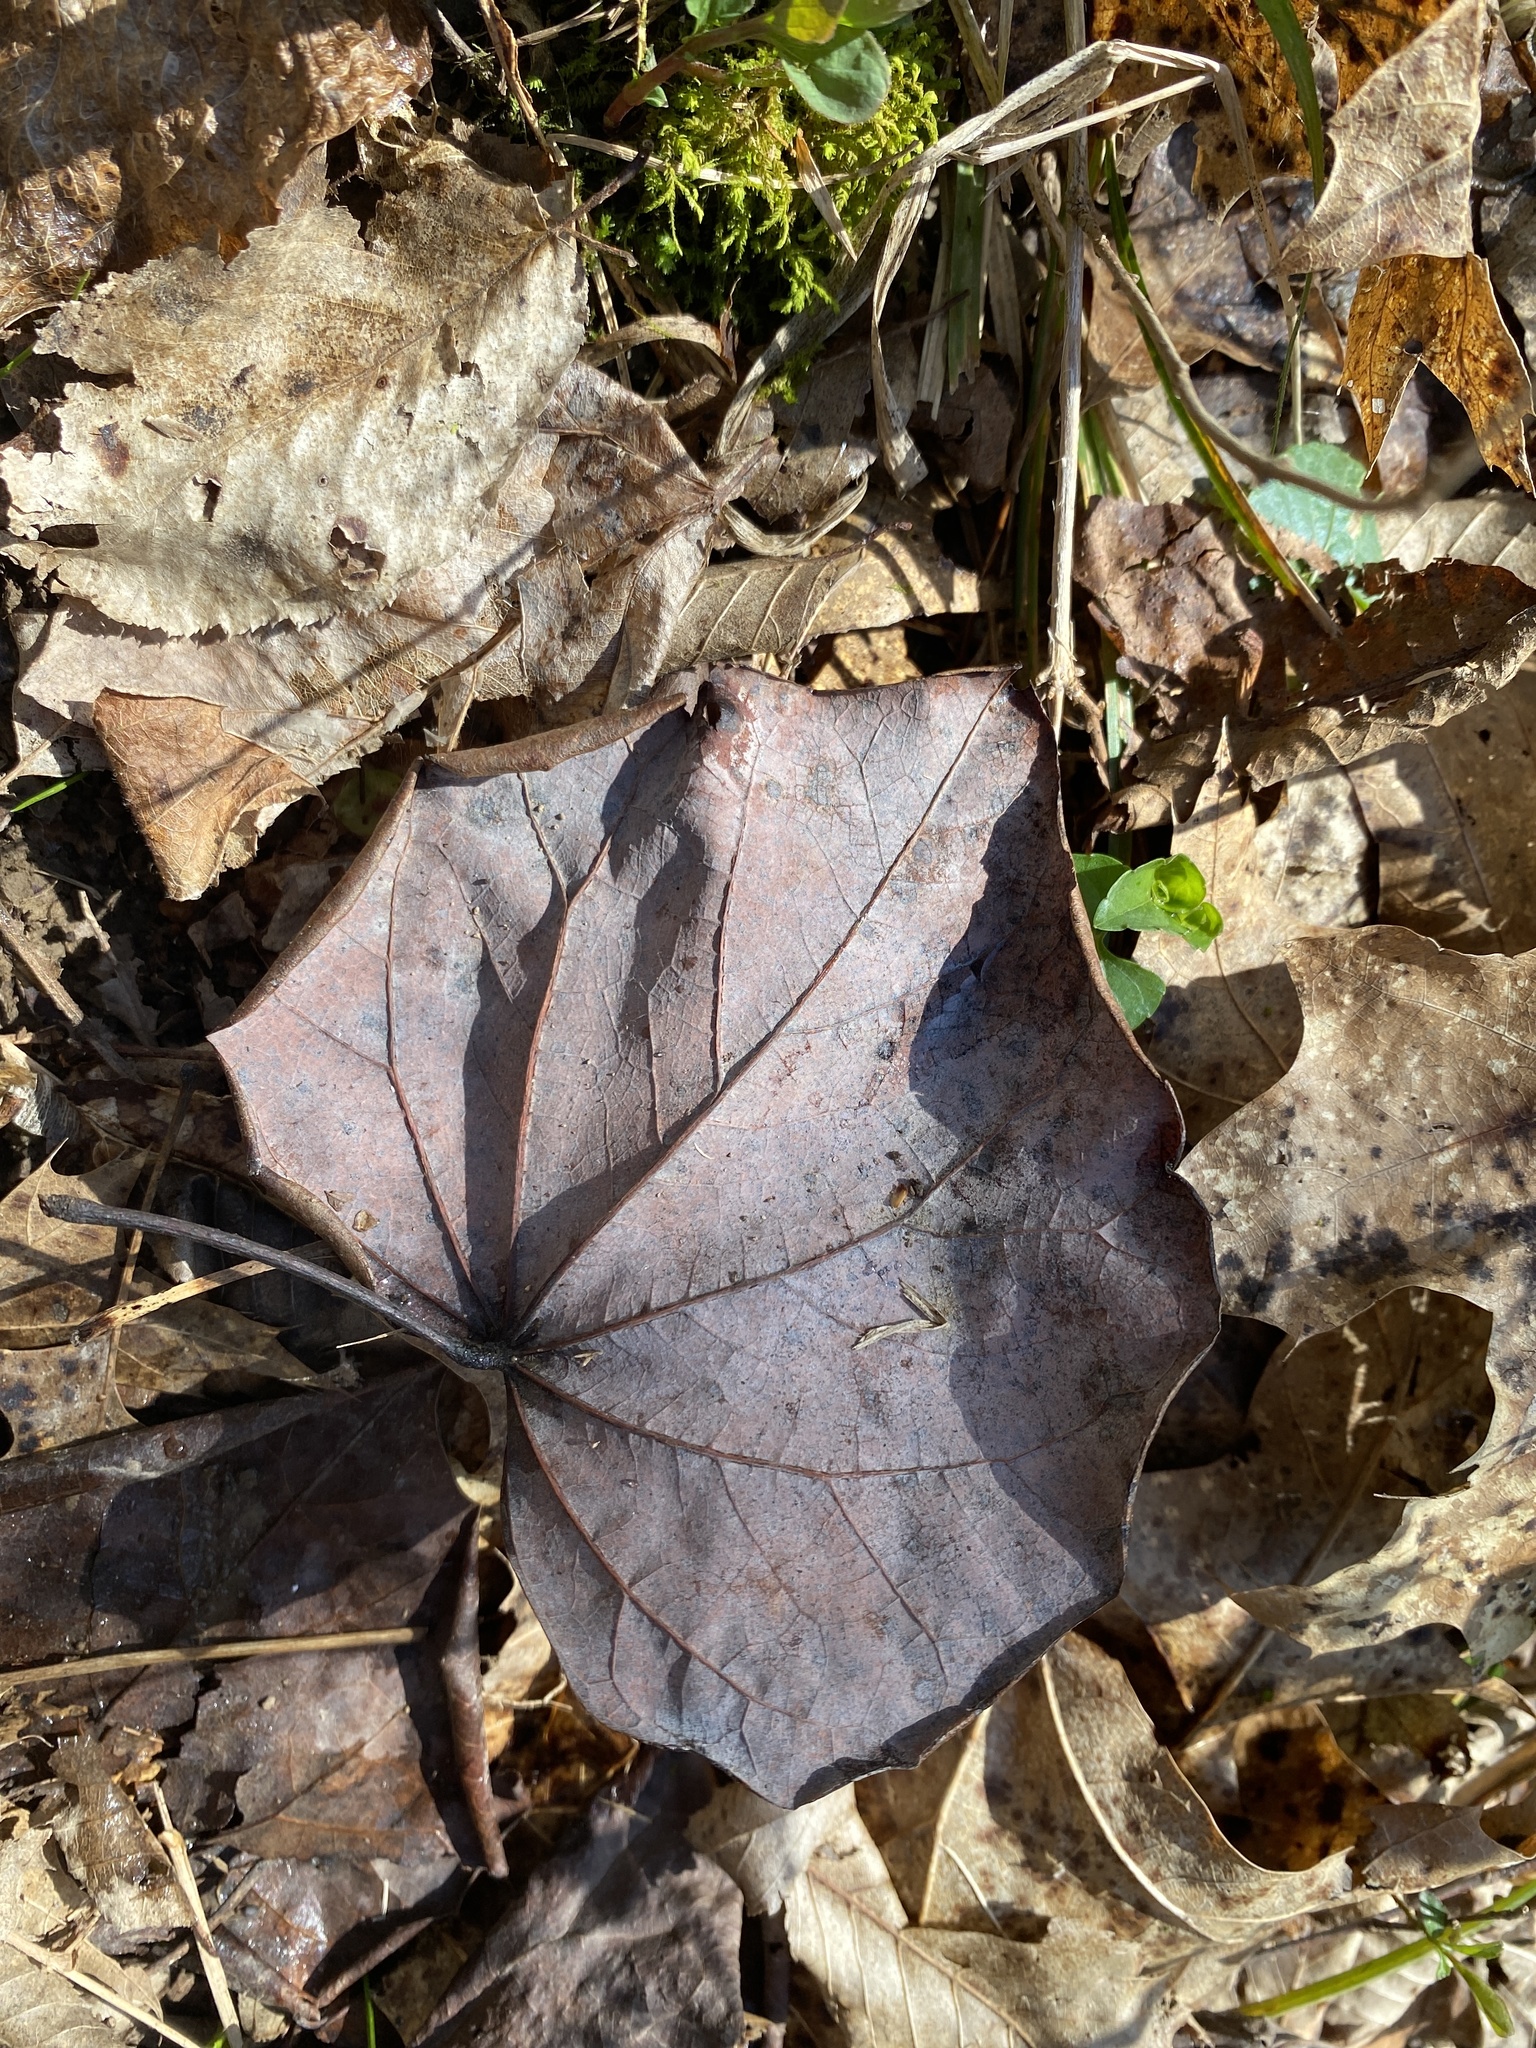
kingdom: Plantae
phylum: Tracheophyta
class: Magnoliopsida
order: Fabales
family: Fabaceae
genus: Cercis
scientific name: Cercis canadensis
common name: Eastern redbud
